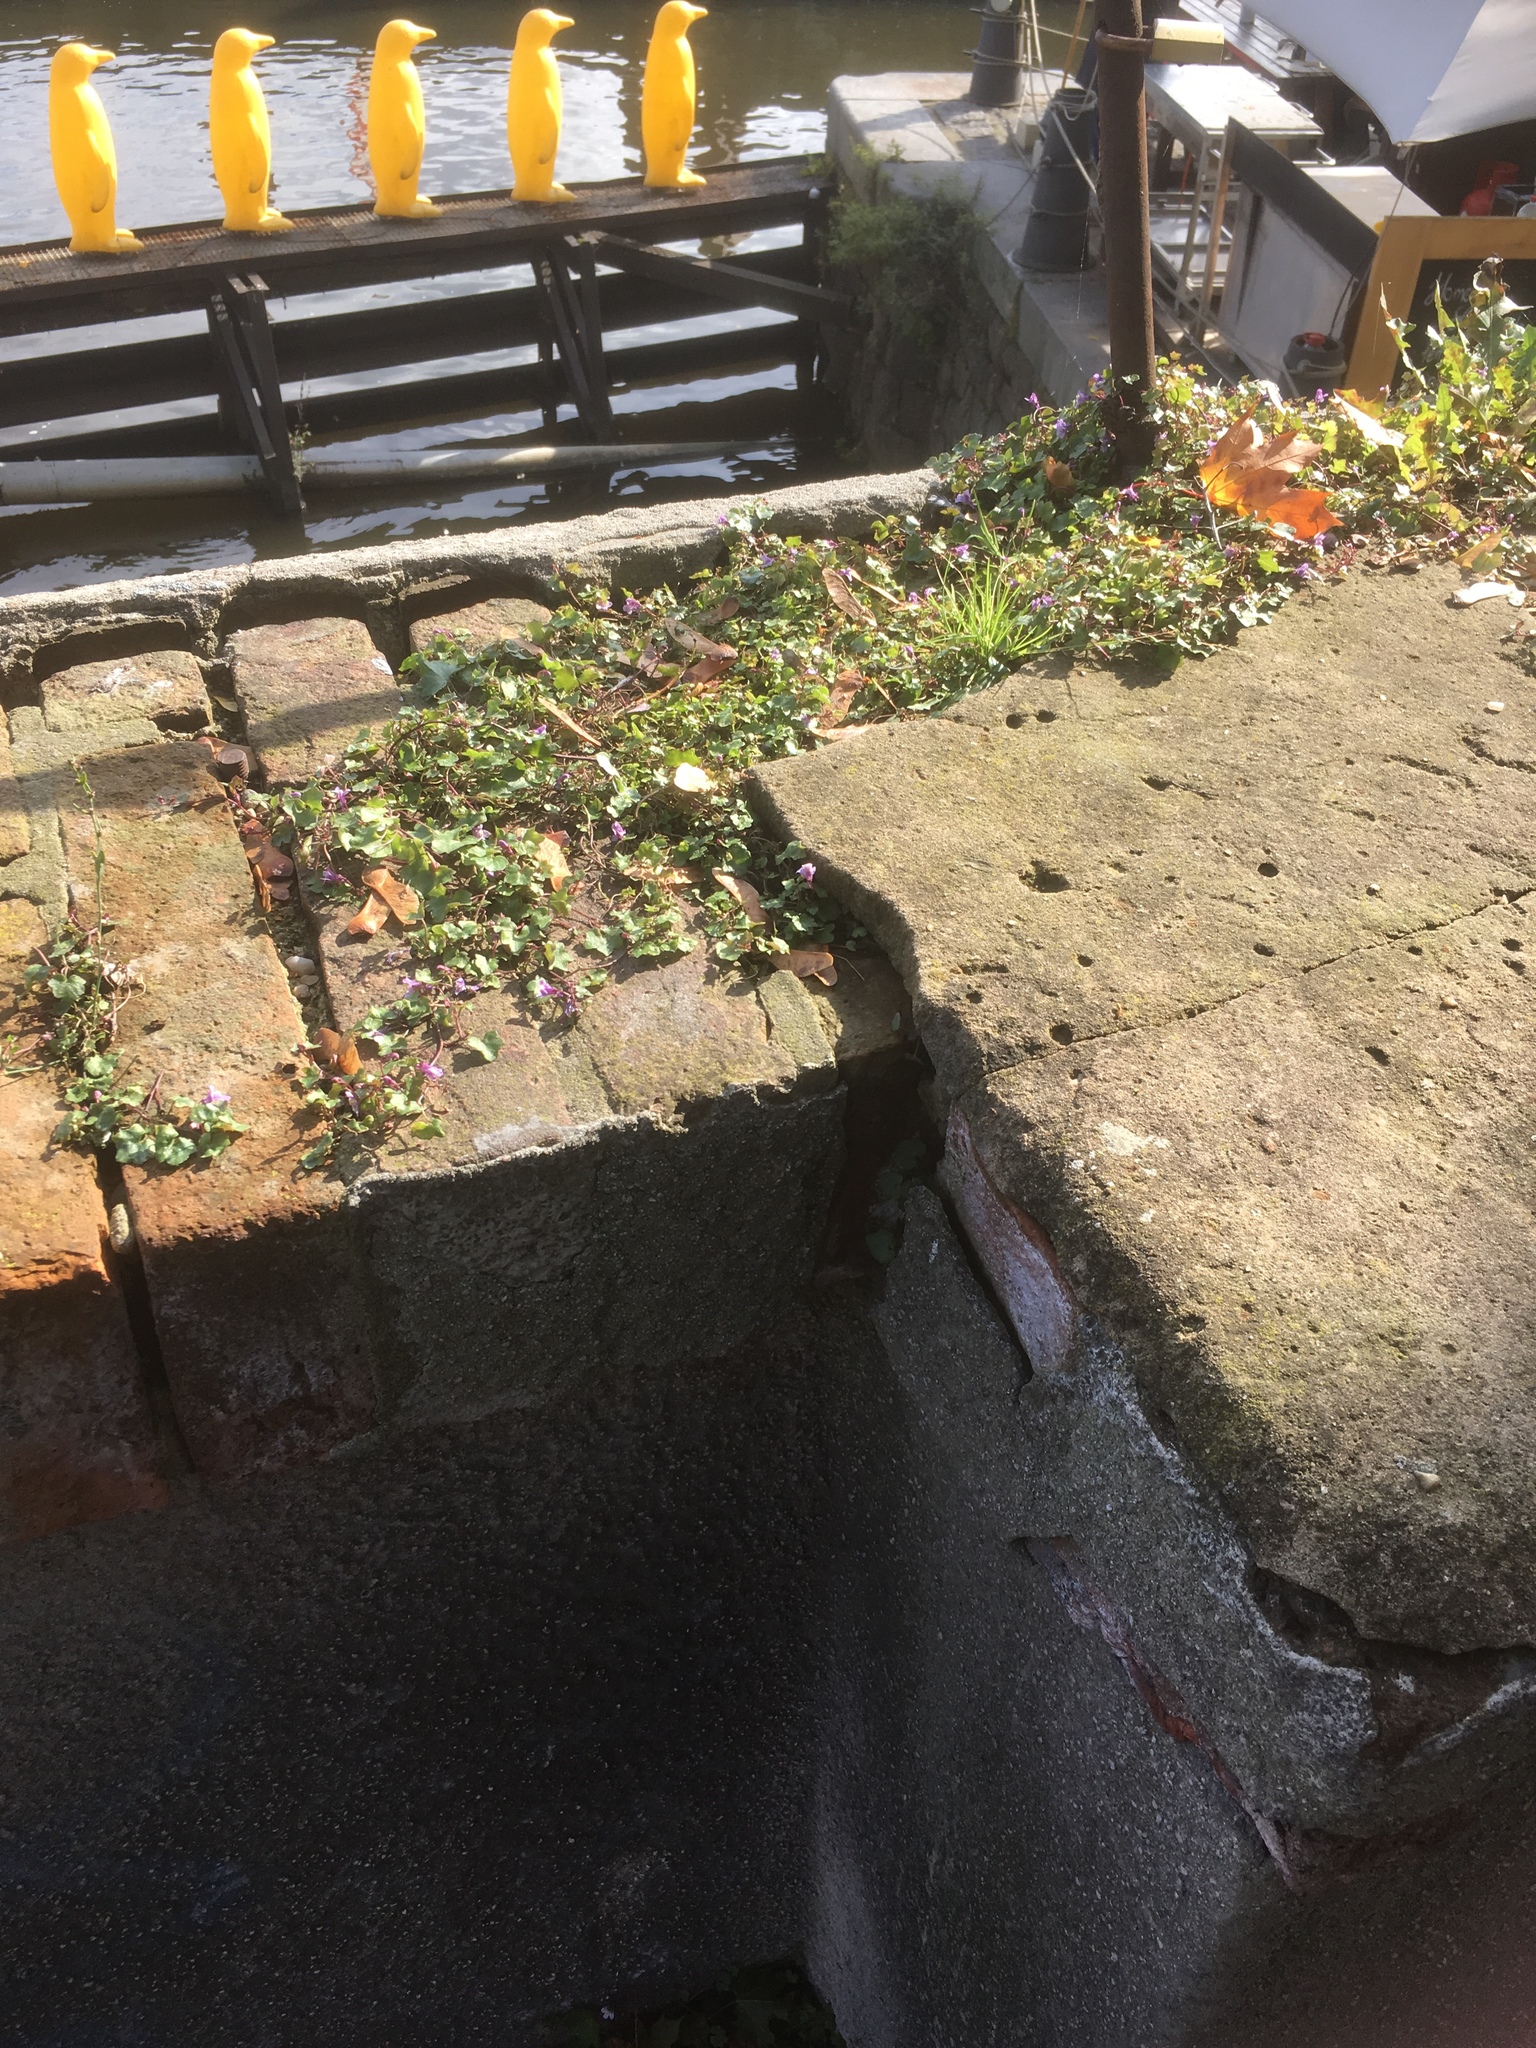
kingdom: Plantae
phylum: Tracheophyta
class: Magnoliopsida
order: Lamiales
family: Plantaginaceae
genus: Cymbalaria
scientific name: Cymbalaria muralis
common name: Ivy-leaved toadflax
